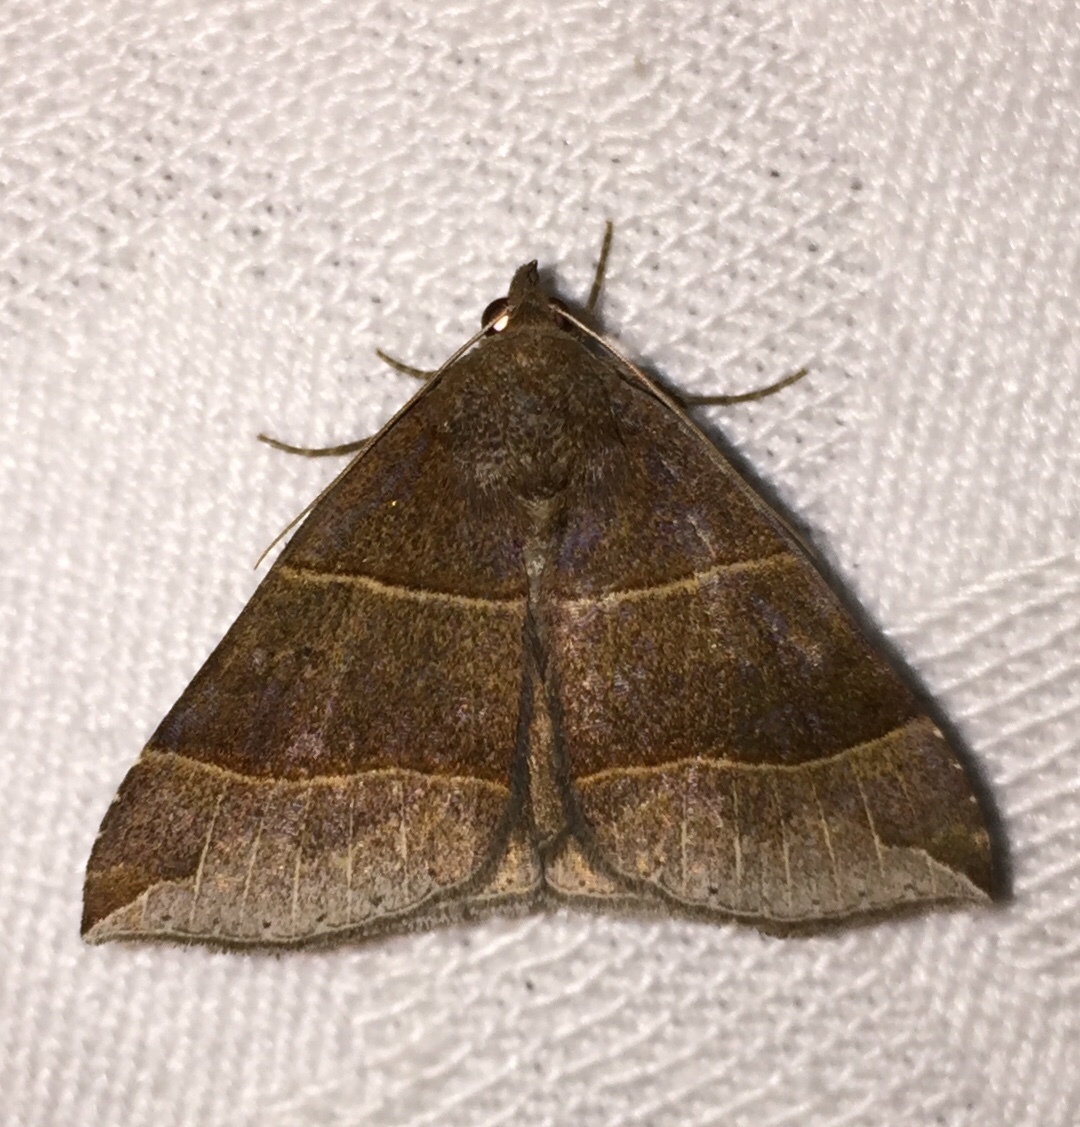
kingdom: Animalia
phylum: Arthropoda
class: Insecta
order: Lepidoptera
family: Erebidae
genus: Parallelia
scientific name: Parallelia bistriaris
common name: Maple looper moth
